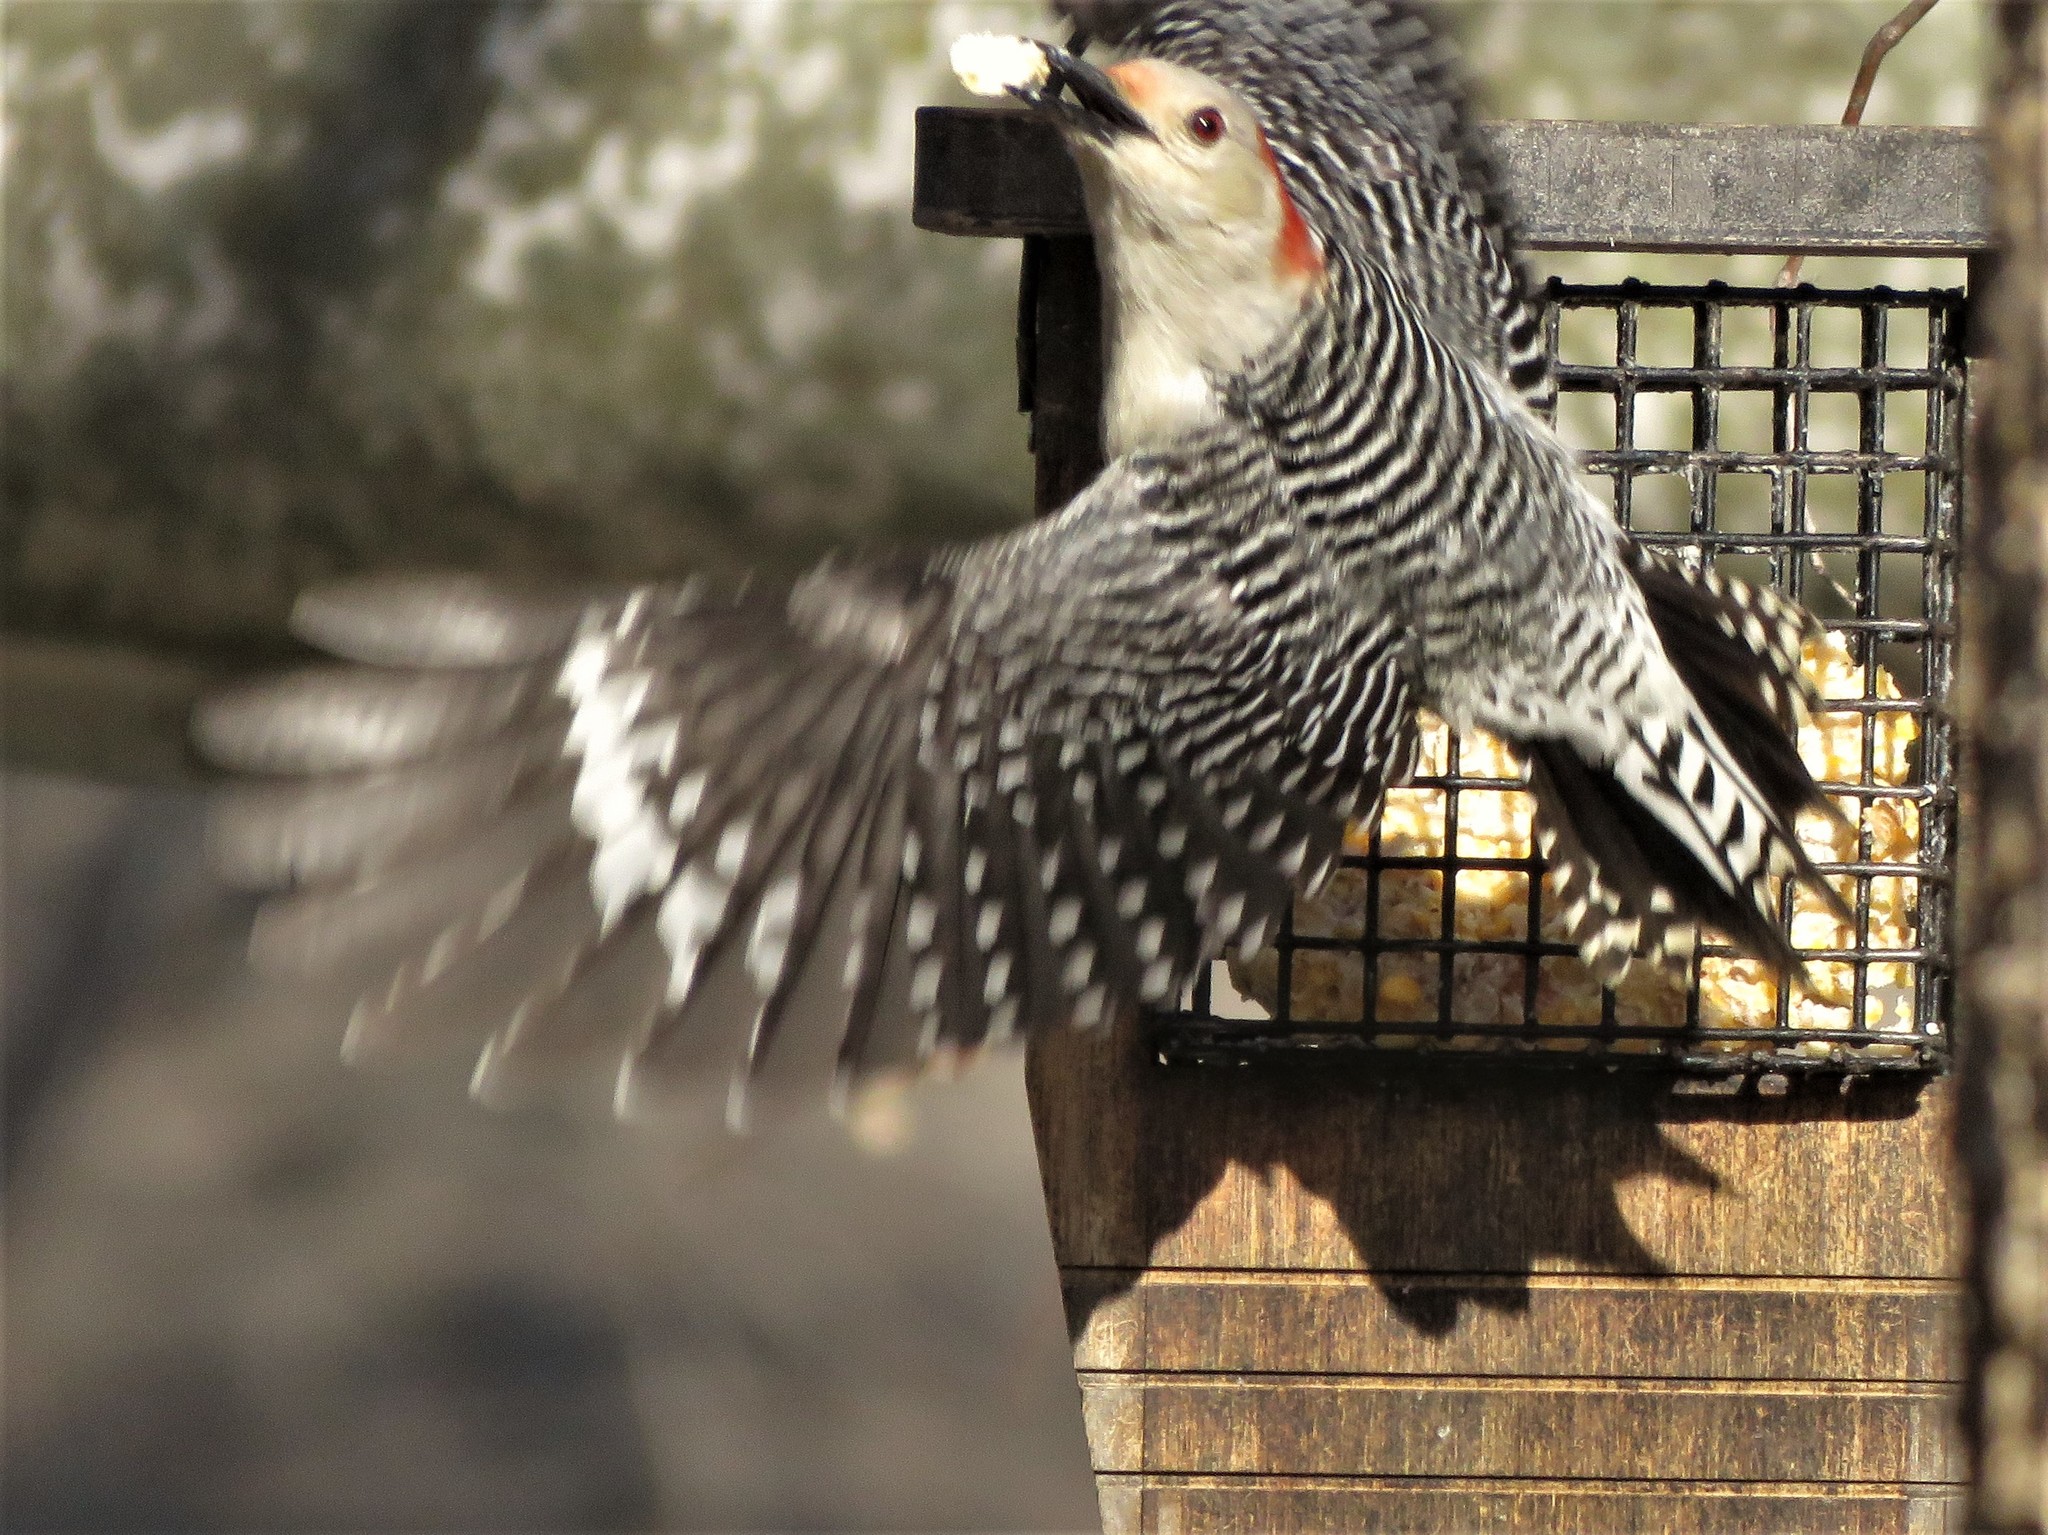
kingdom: Animalia
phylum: Chordata
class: Aves
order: Piciformes
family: Picidae
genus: Melanerpes
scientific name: Melanerpes carolinus
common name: Red-bellied woodpecker
